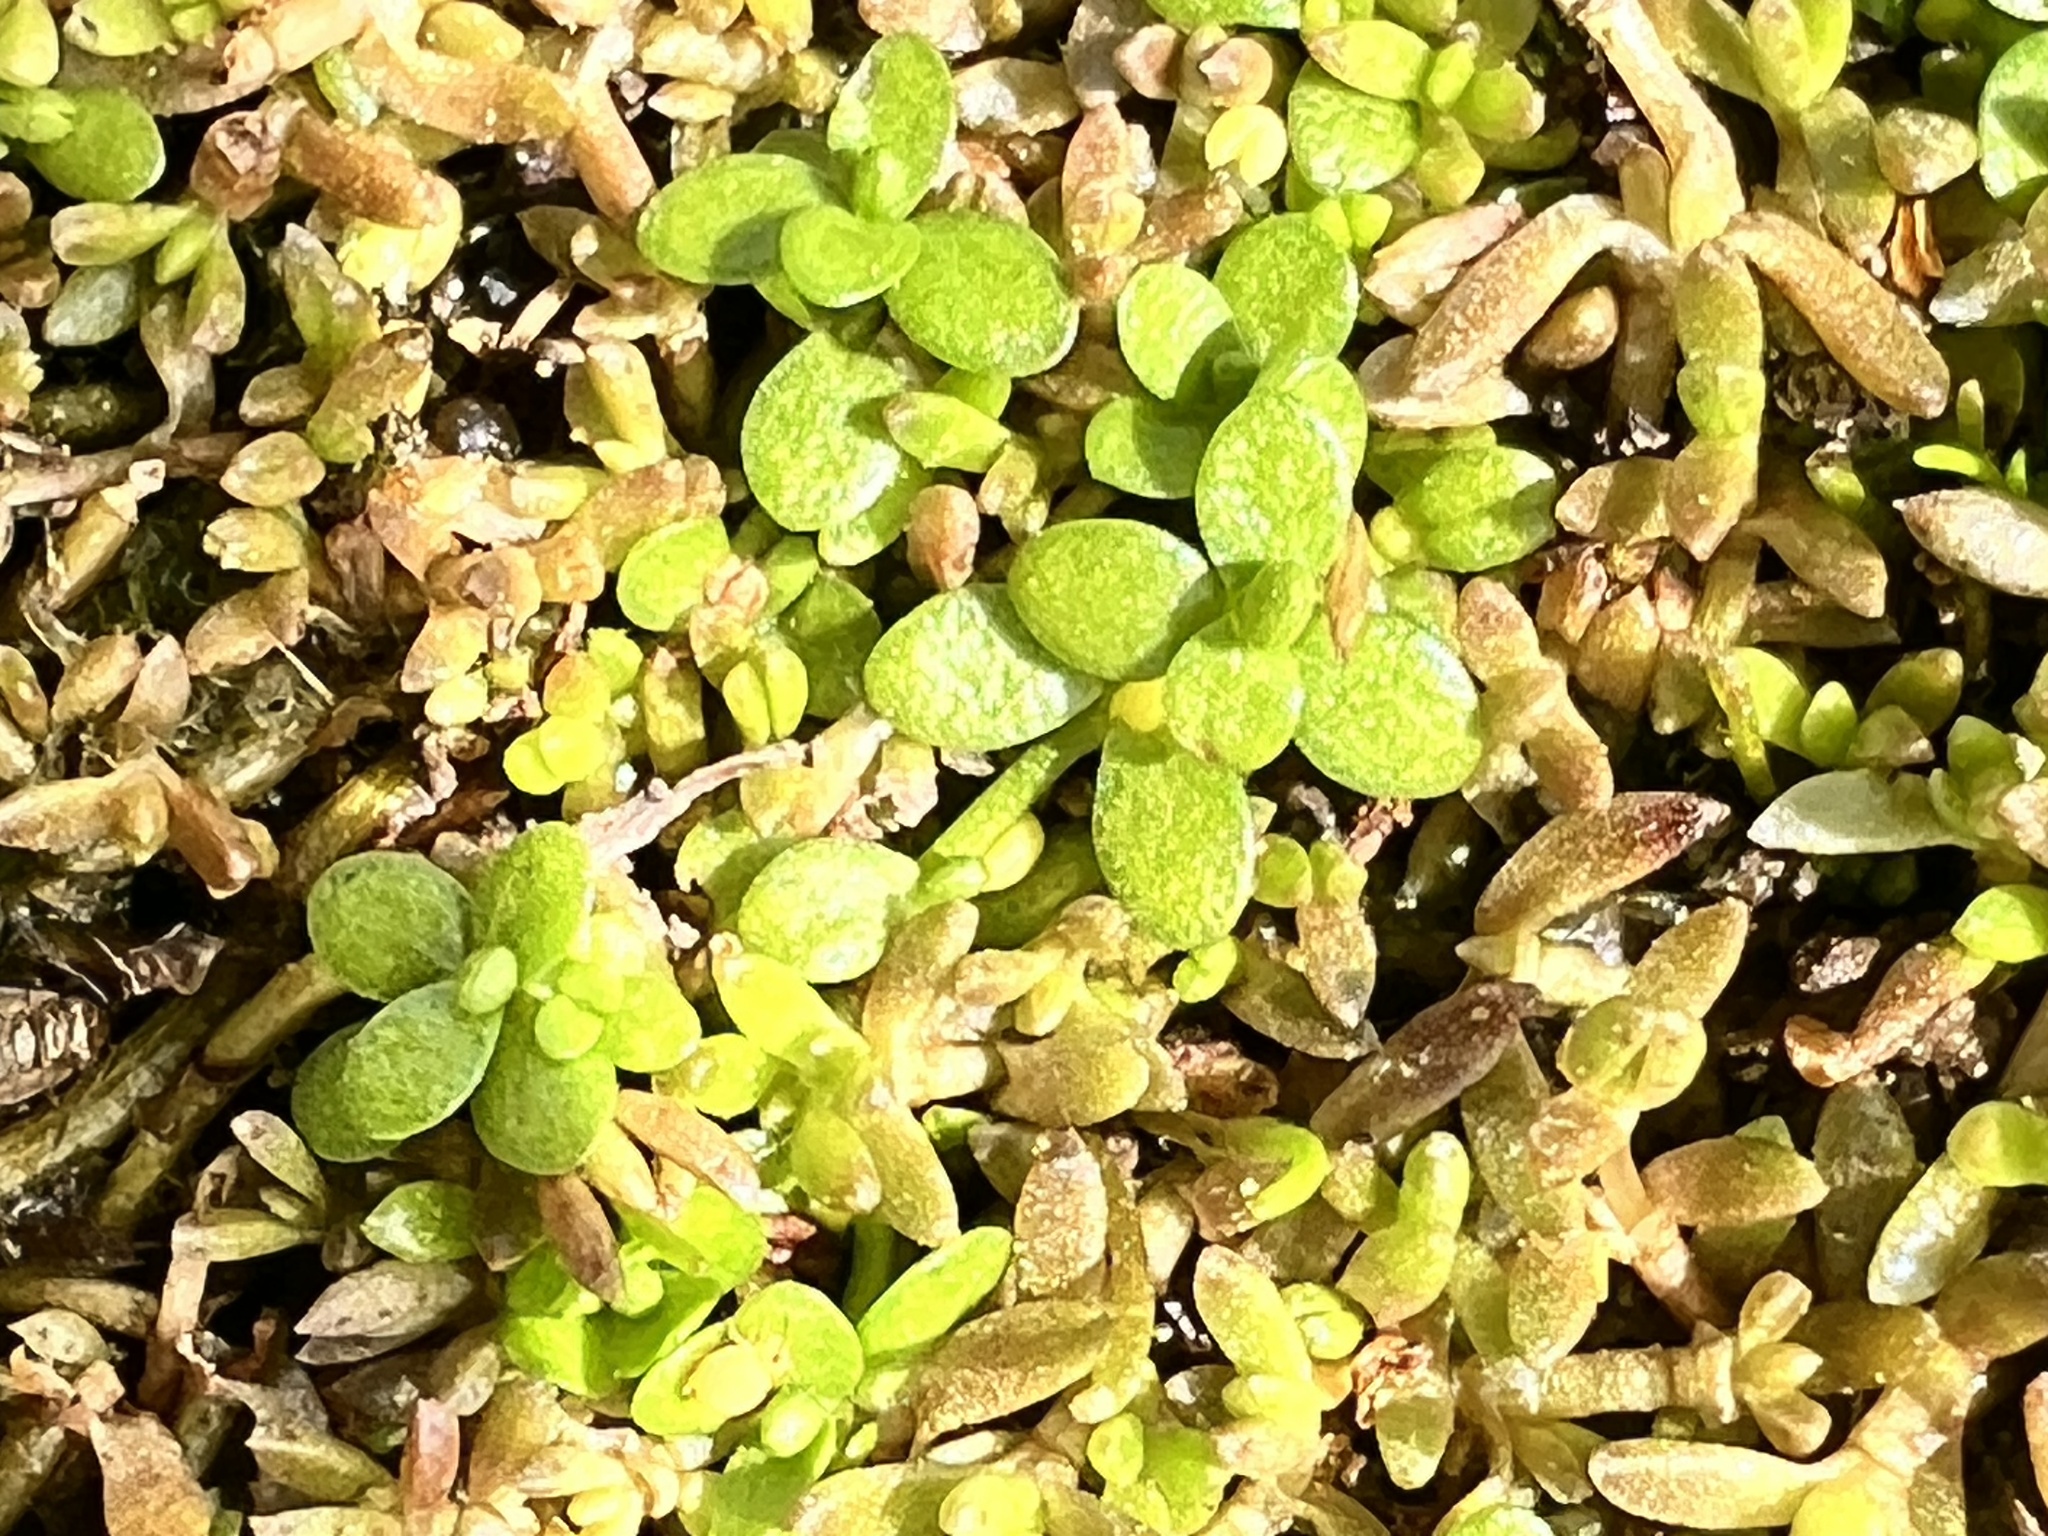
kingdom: Plantae
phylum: Tracheophyta
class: Magnoliopsida
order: Lamiales
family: Plantaginaceae
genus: Callitriche
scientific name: Callitriche stagnalis
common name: Common water-starwort
